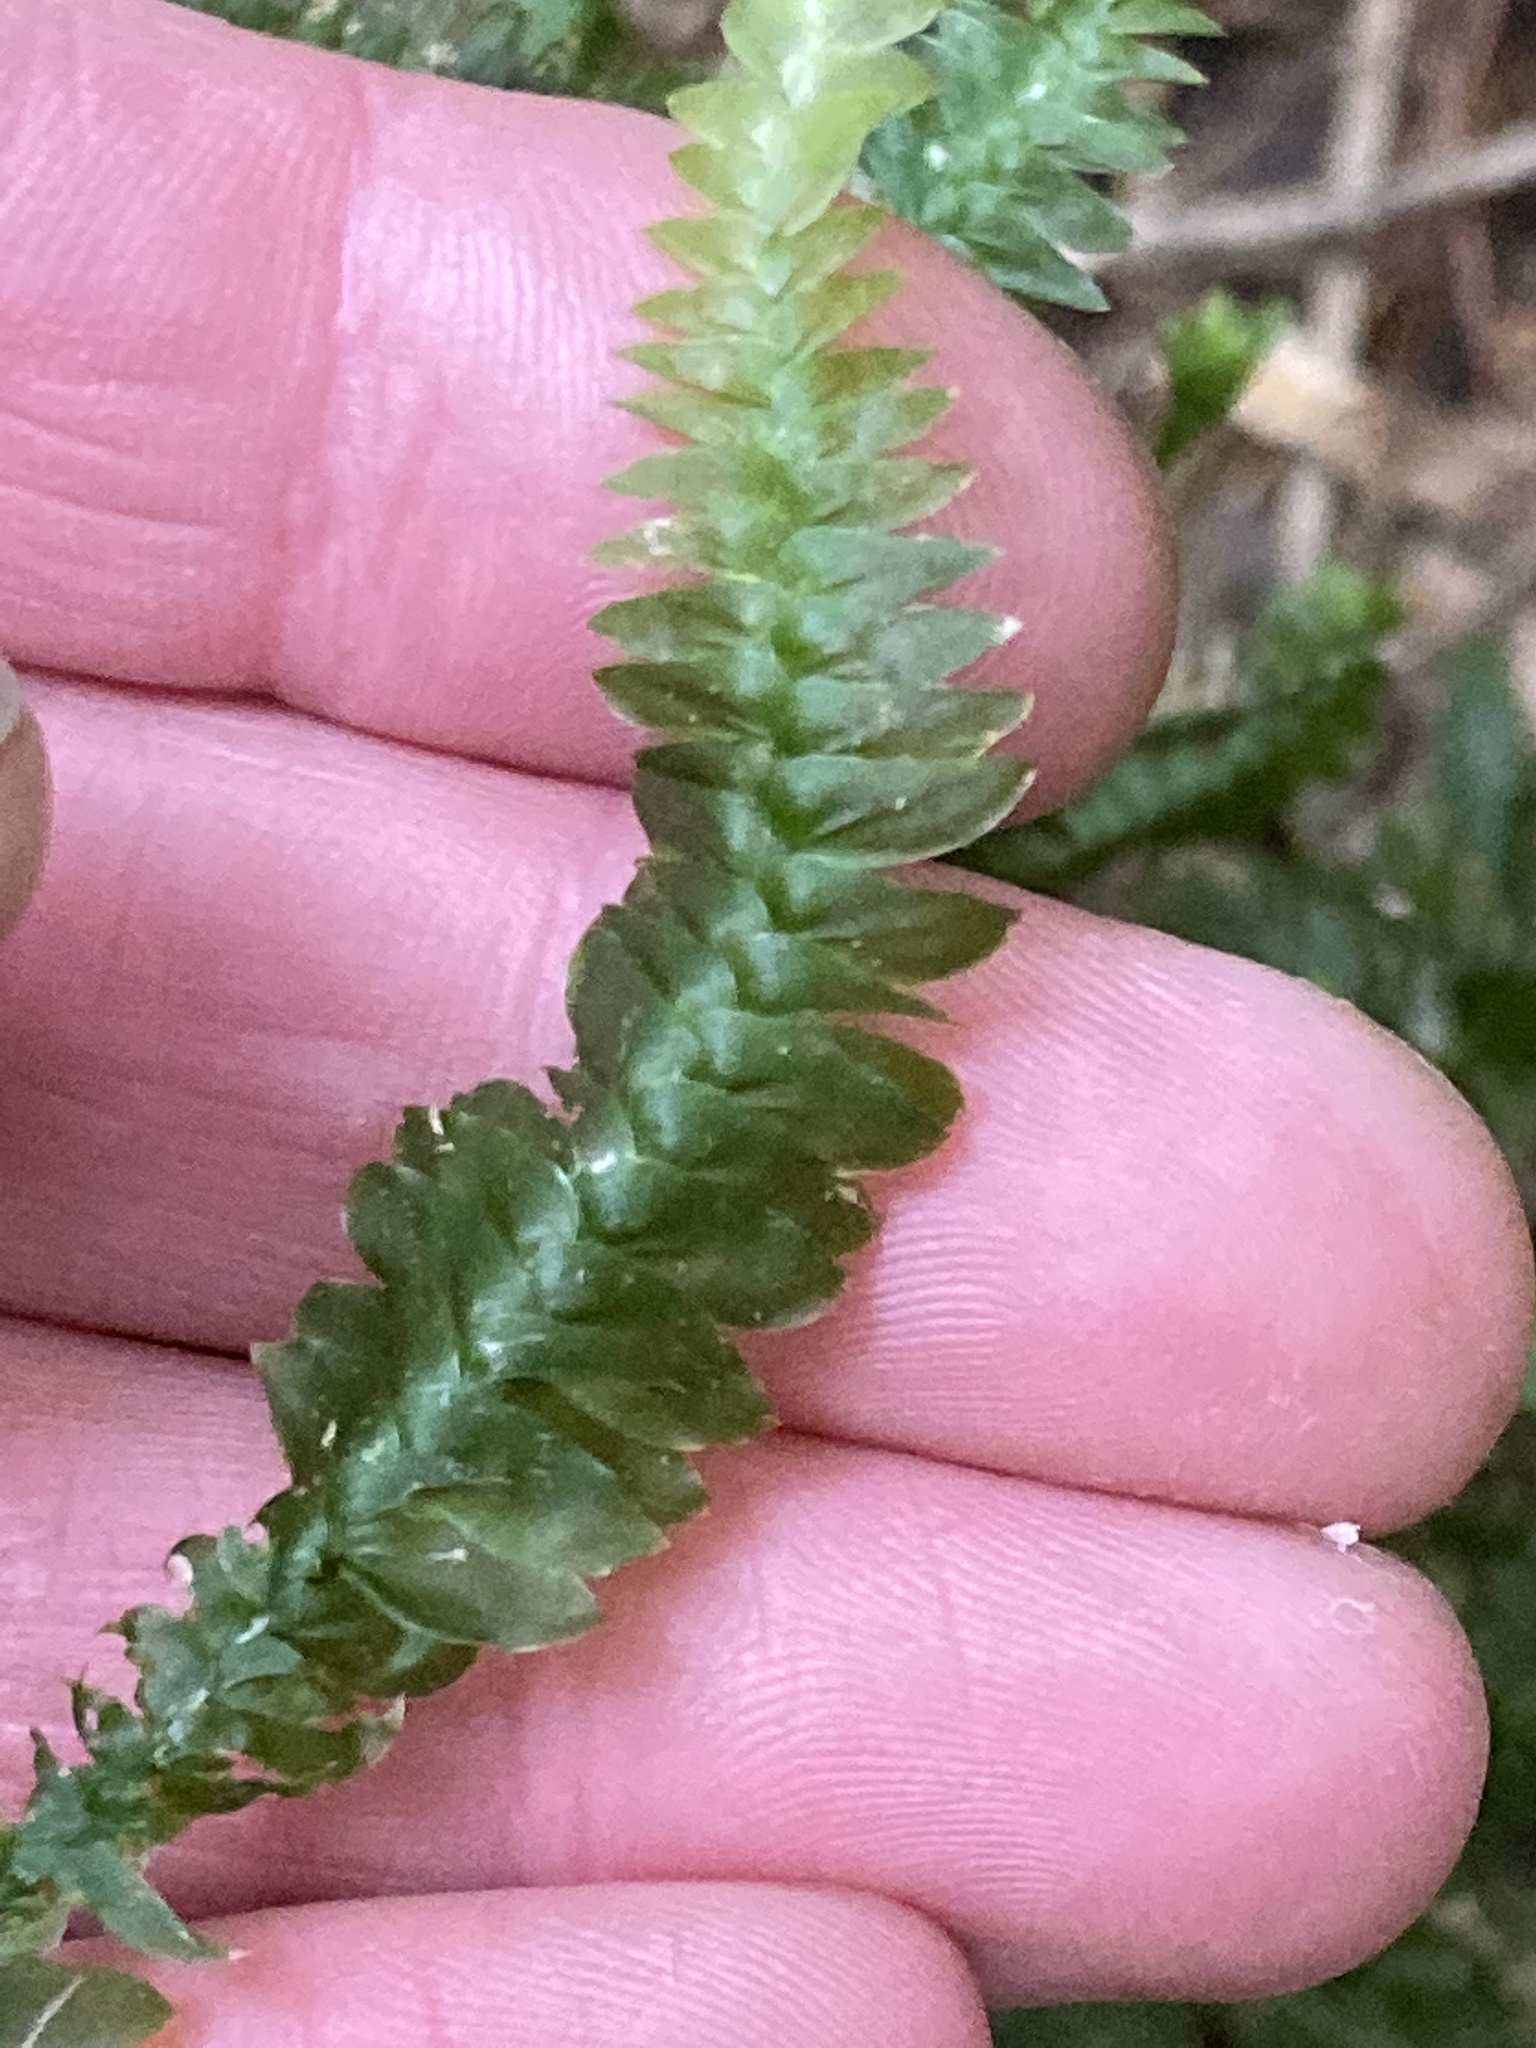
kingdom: Plantae
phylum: Bryophyta
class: Bryopsida
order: Hypopterygiales
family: Hypopterygiaceae
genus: Cyathophorum
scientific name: Cyathophorum bulbosum
